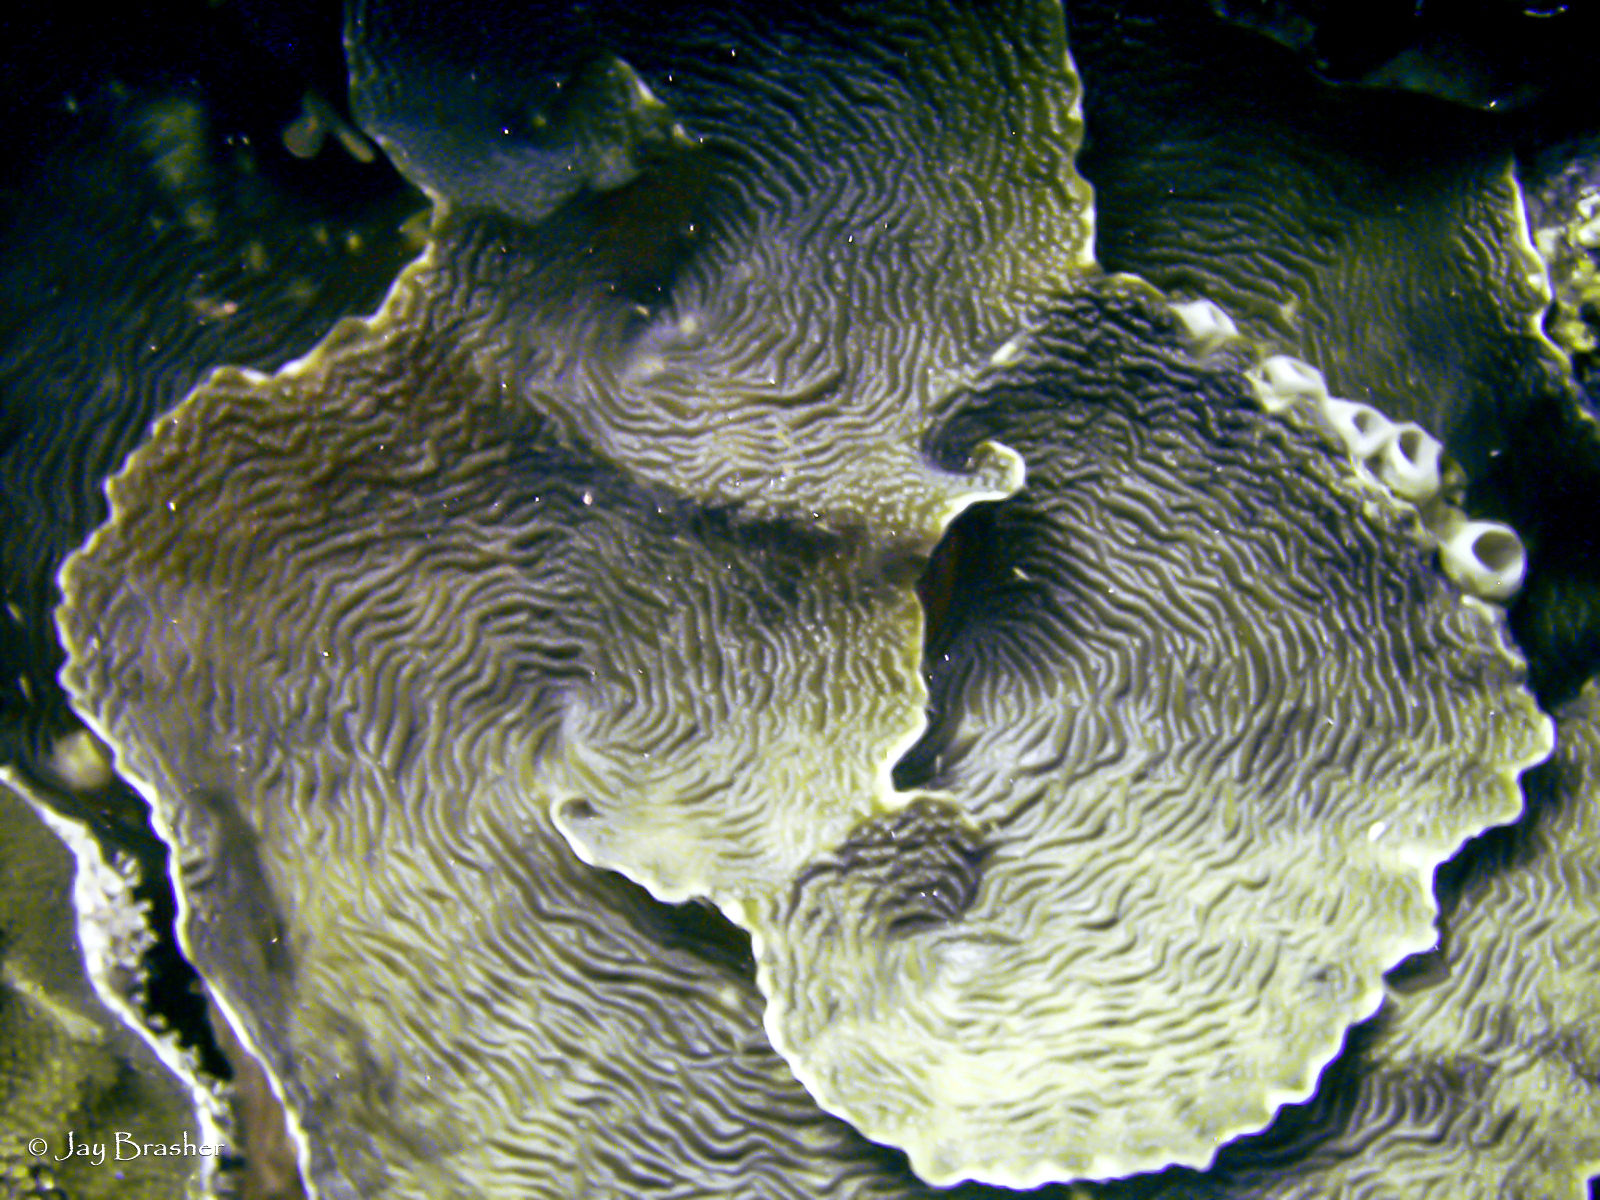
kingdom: Animalia
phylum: Cnidaria
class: Anthozoa
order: Scleractinia
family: Agariciidae
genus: Agaricia
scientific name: Agaricia lamarcki
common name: Lamarck's sheet coral
